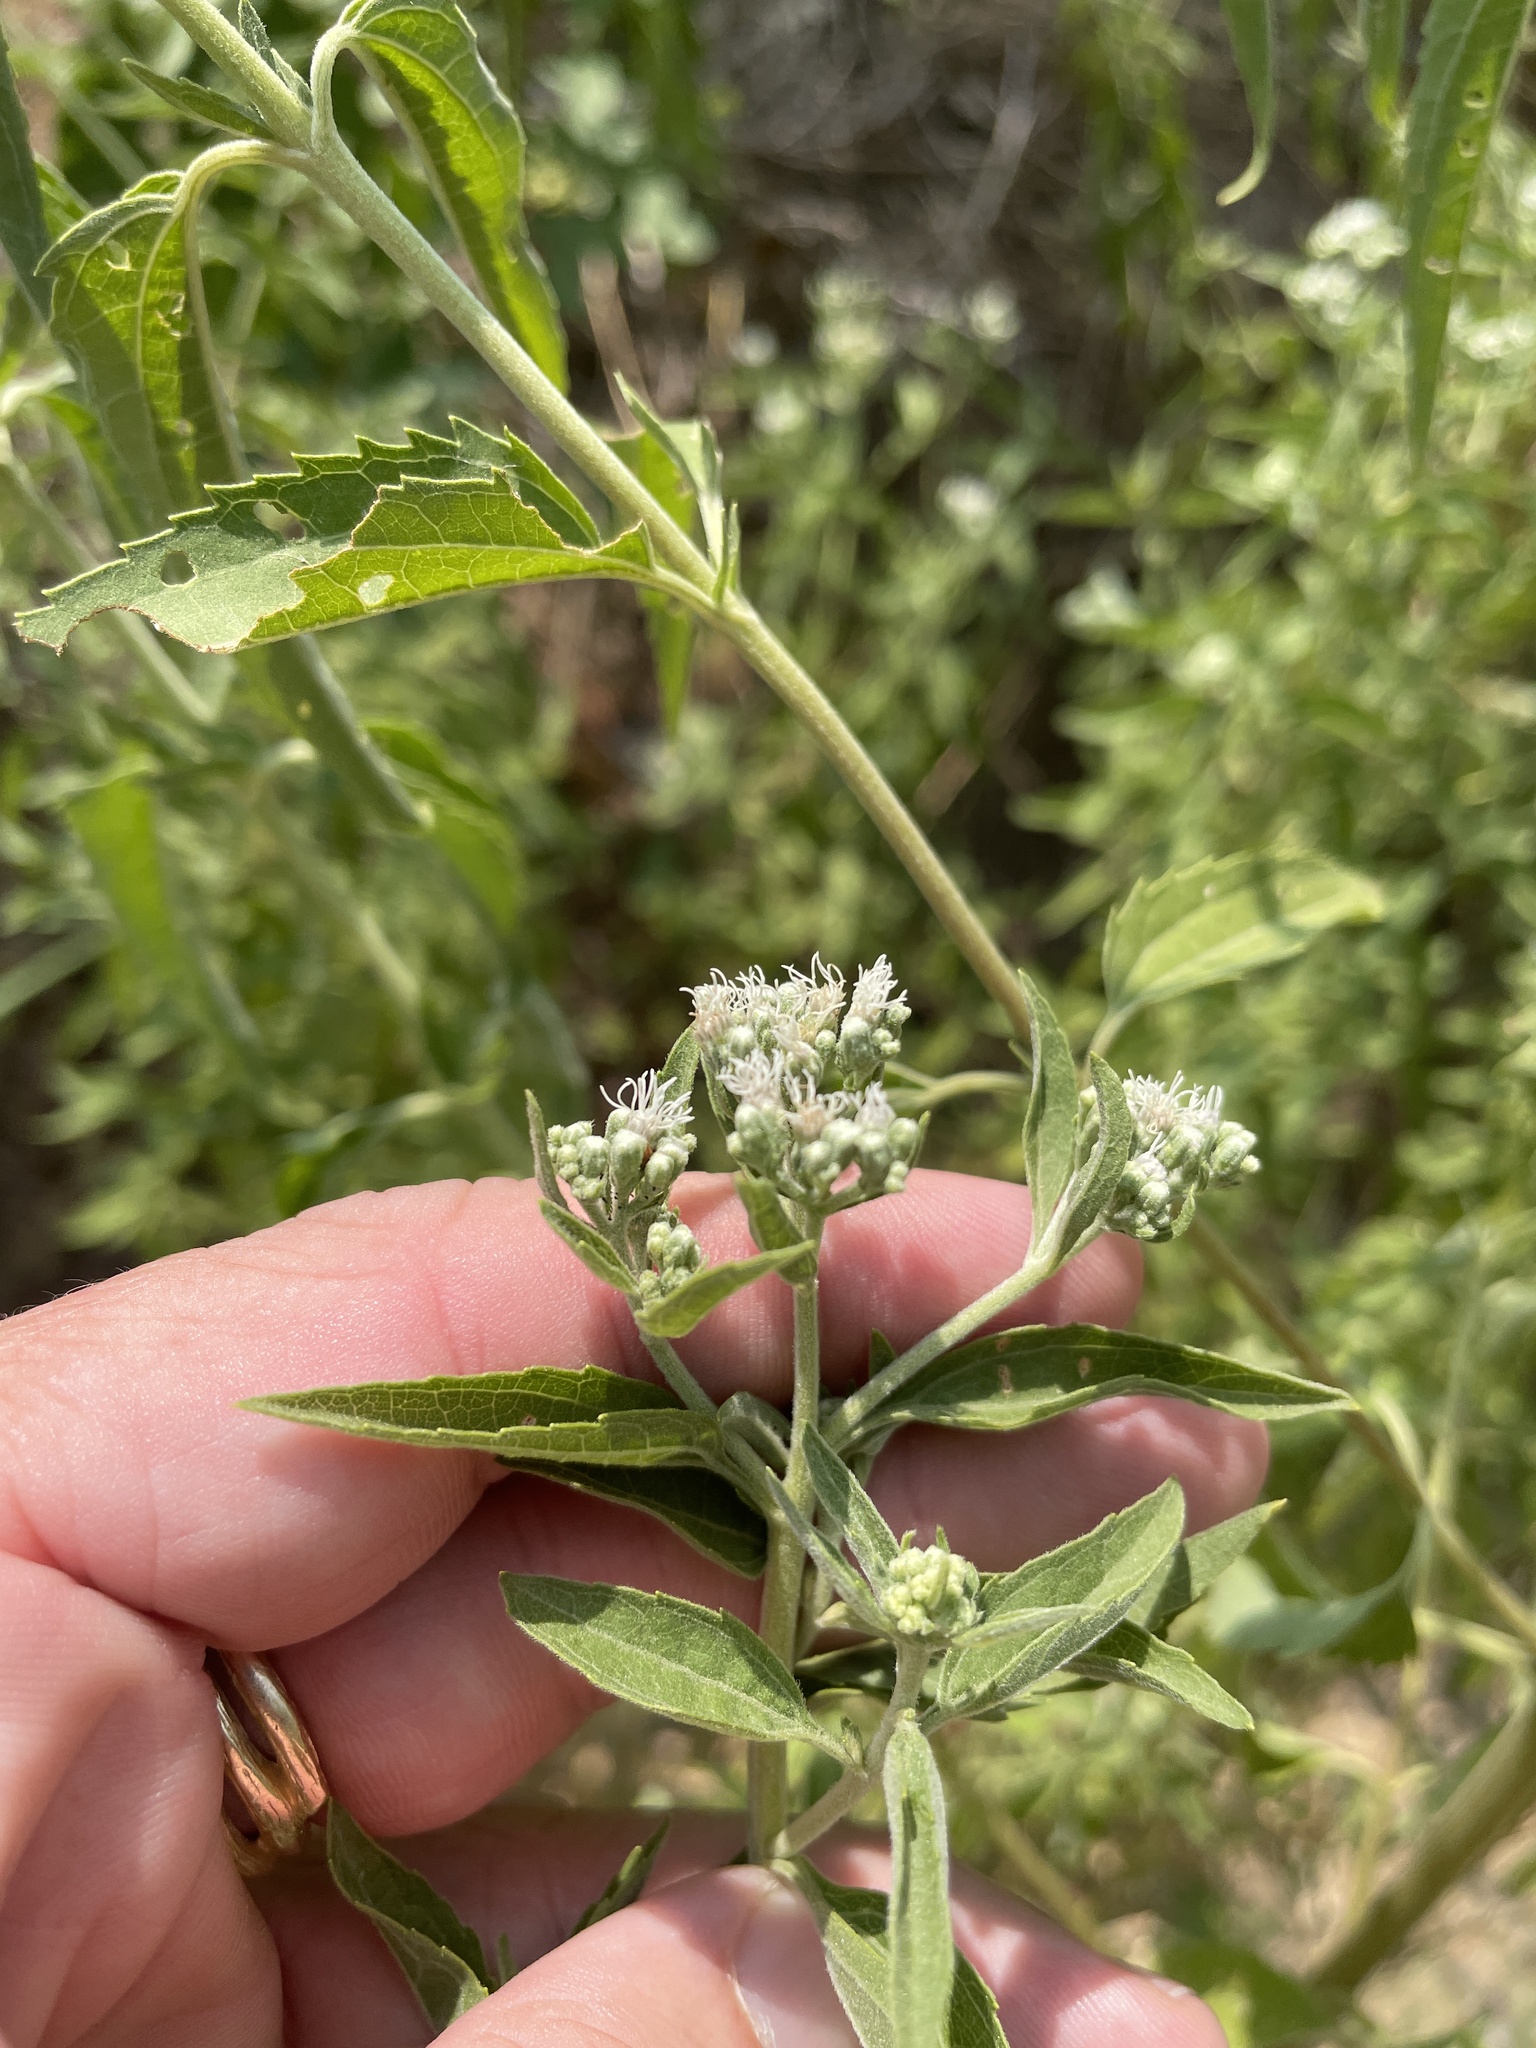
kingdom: Plantae
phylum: Tracheophyta
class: Magnoliopsida
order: Asterales
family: Asteraceae
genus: Eupatorium
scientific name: Eupatorium serotinum
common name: Late boneset
